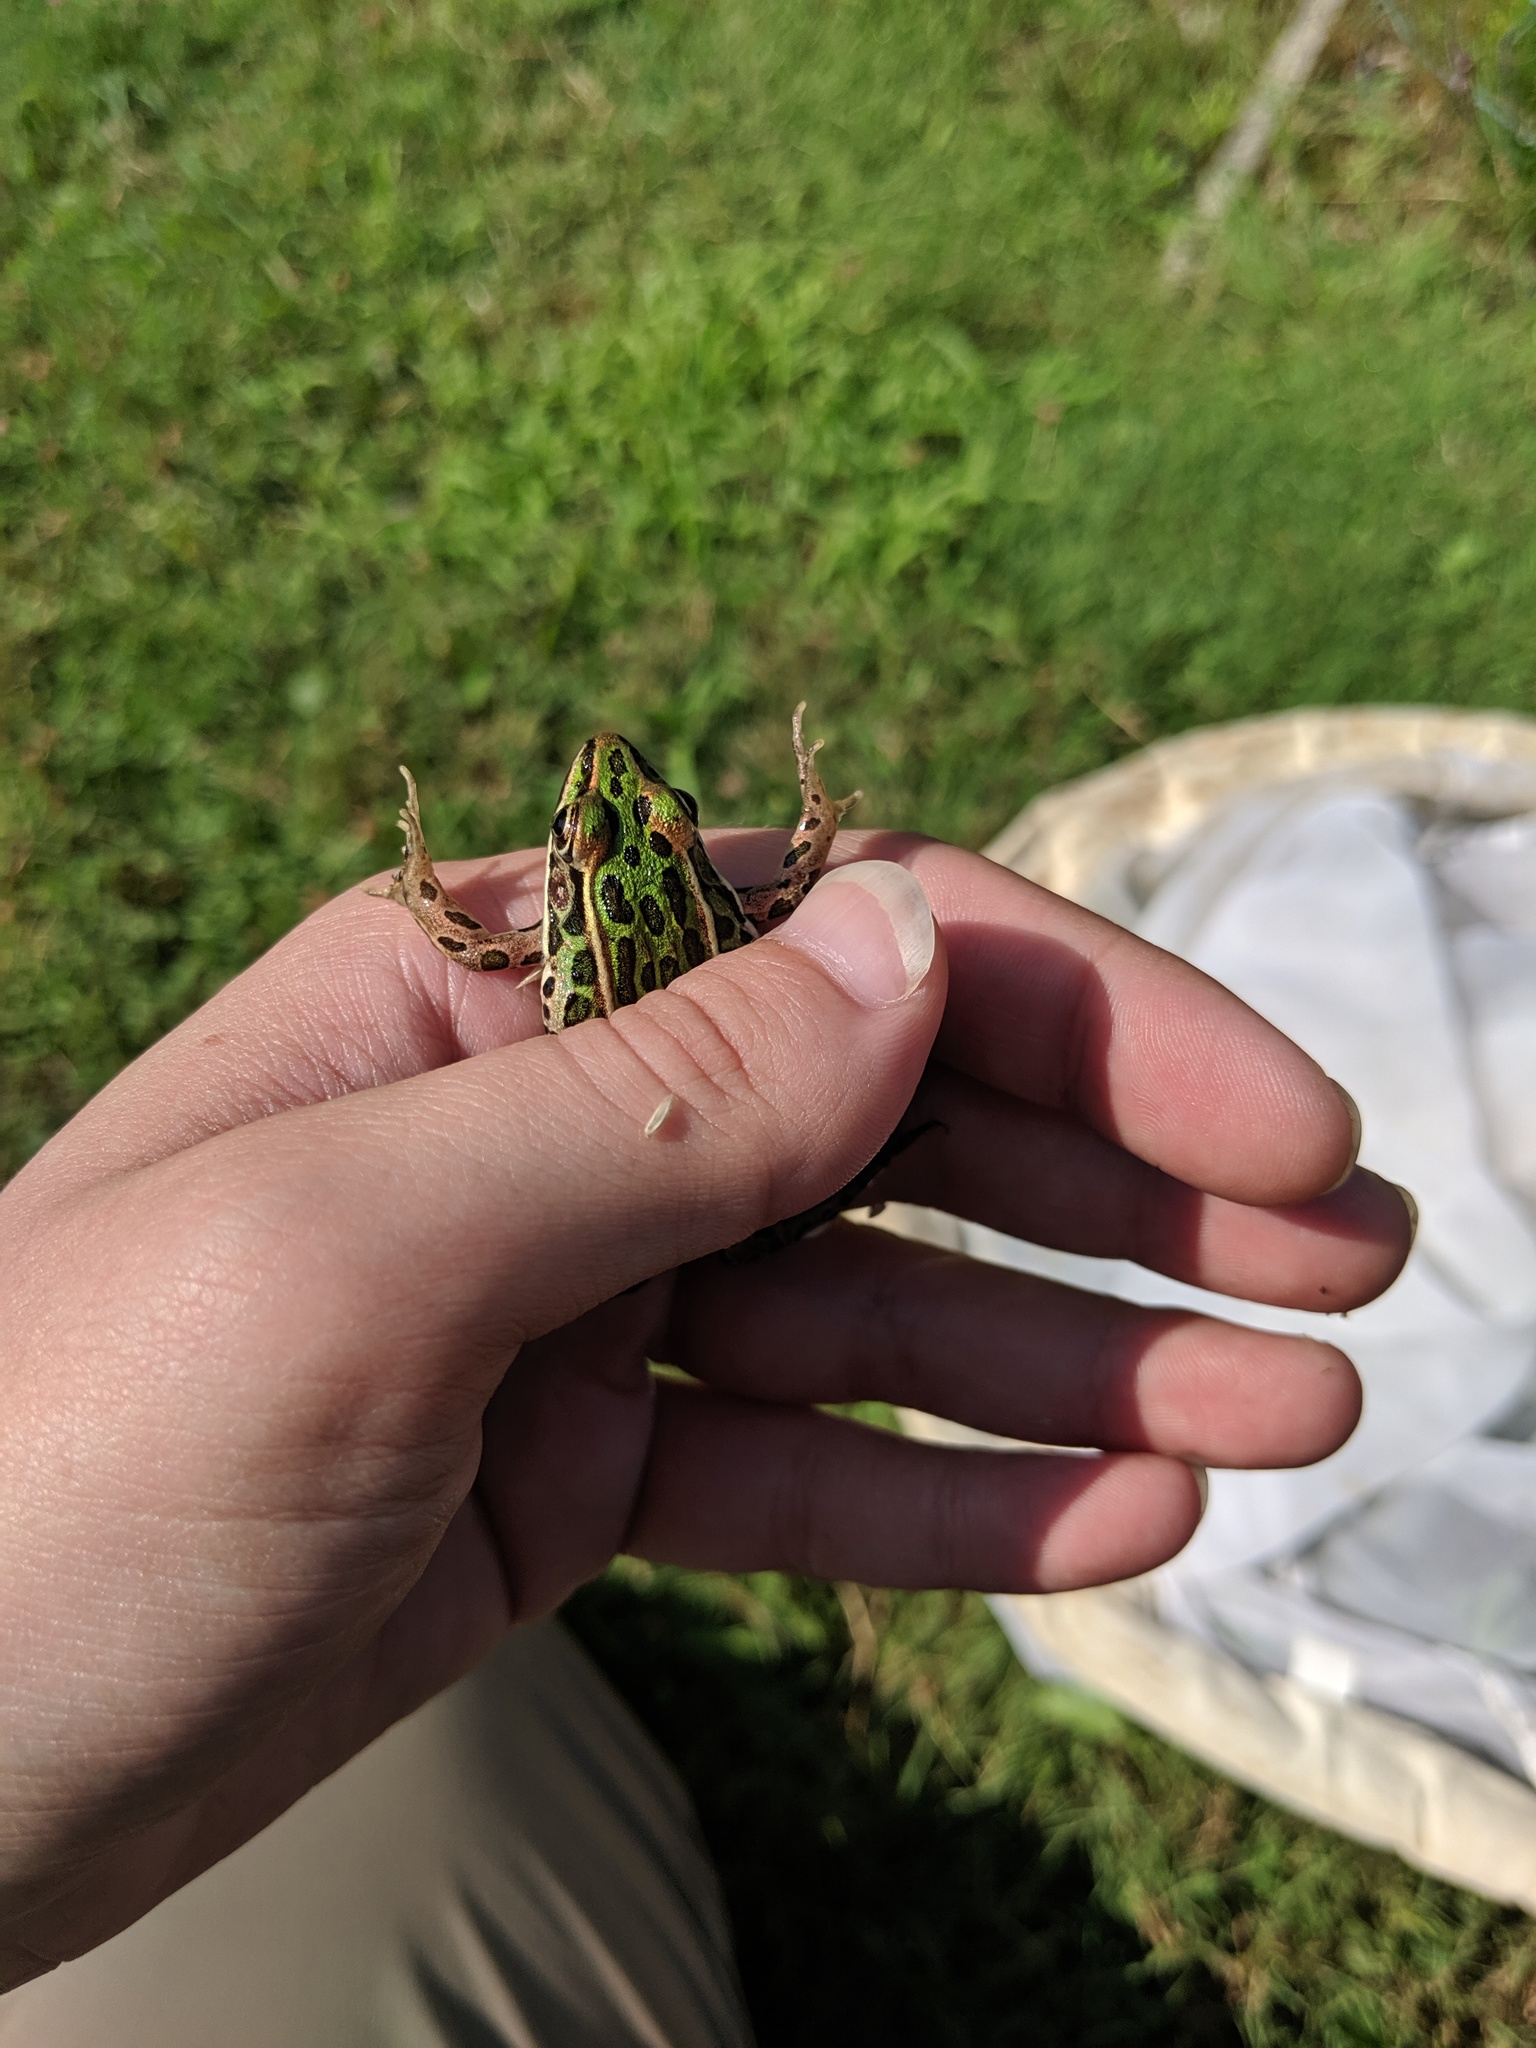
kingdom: Animalia
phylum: Chordata
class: Amphibia
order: Anura
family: Ranidae
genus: Lithobates
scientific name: Lithobates pipiens
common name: Northern leopard frog
